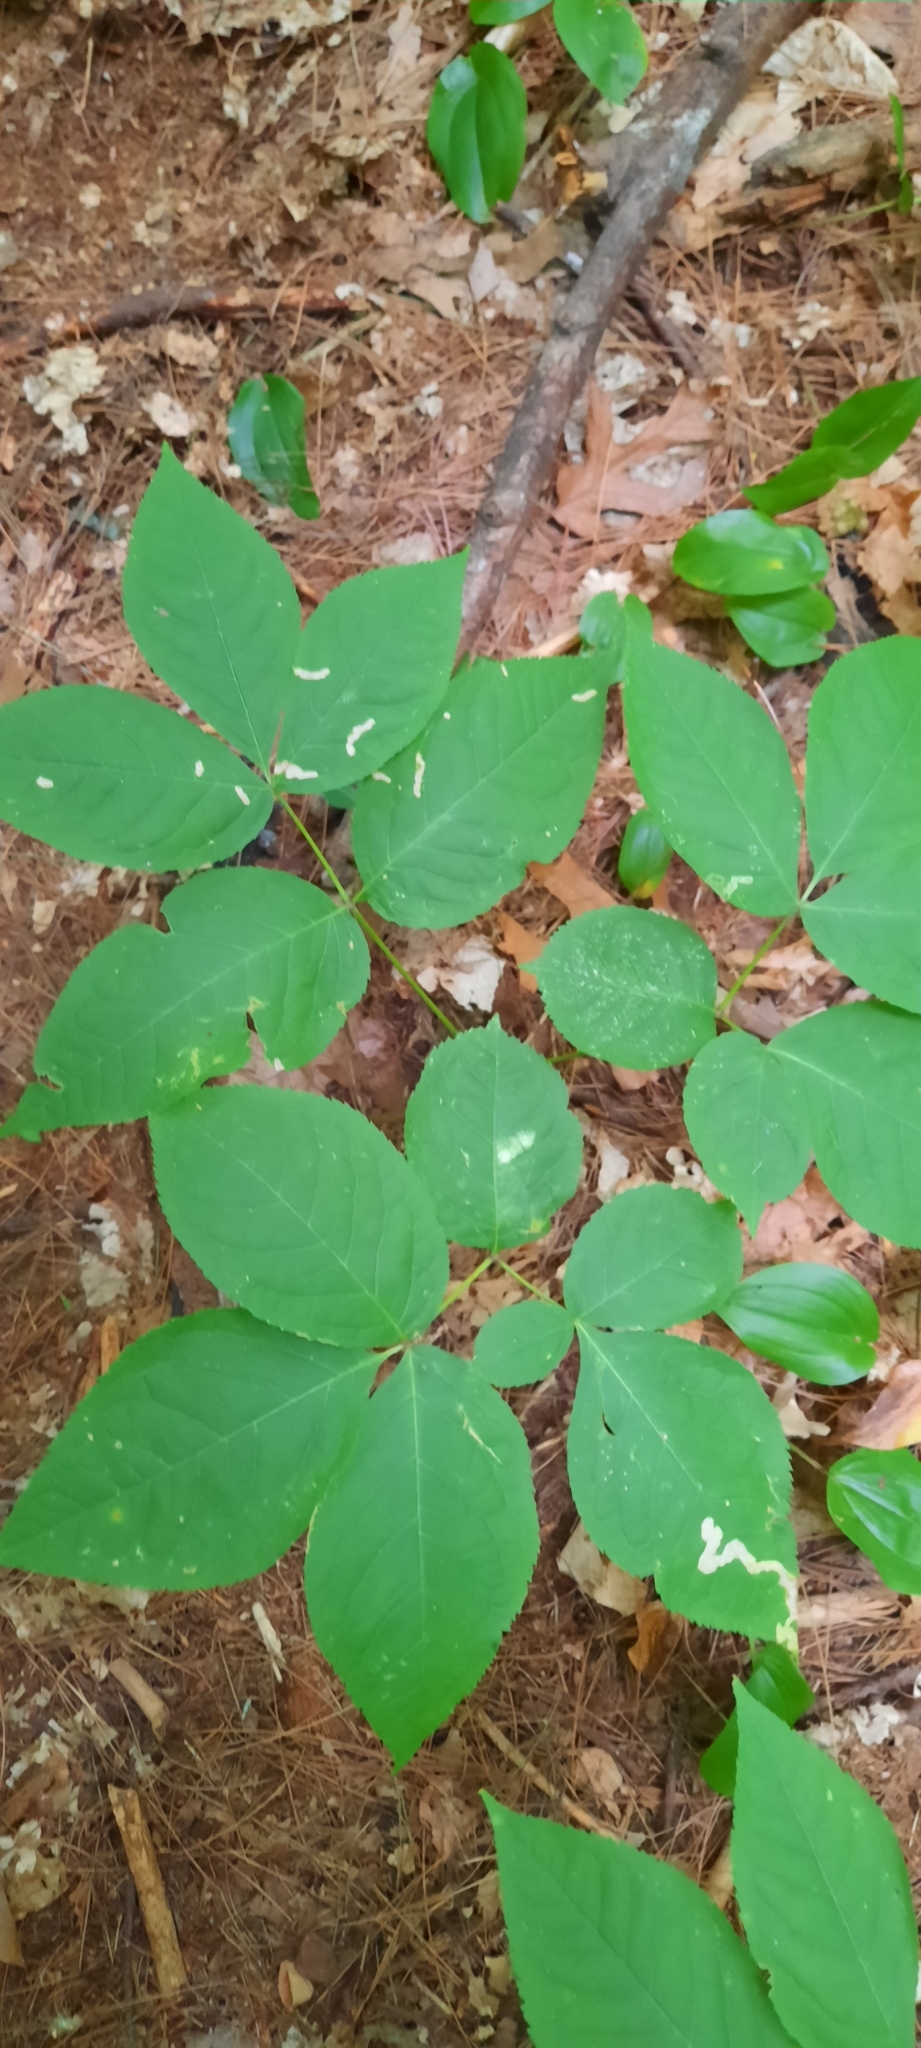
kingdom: Plantae
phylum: Tracheophyta
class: Magnoliopsida
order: Apiales
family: Araliaceae
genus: Aralia
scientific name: Aralia nudicaulis
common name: Wild sarsaparilla
